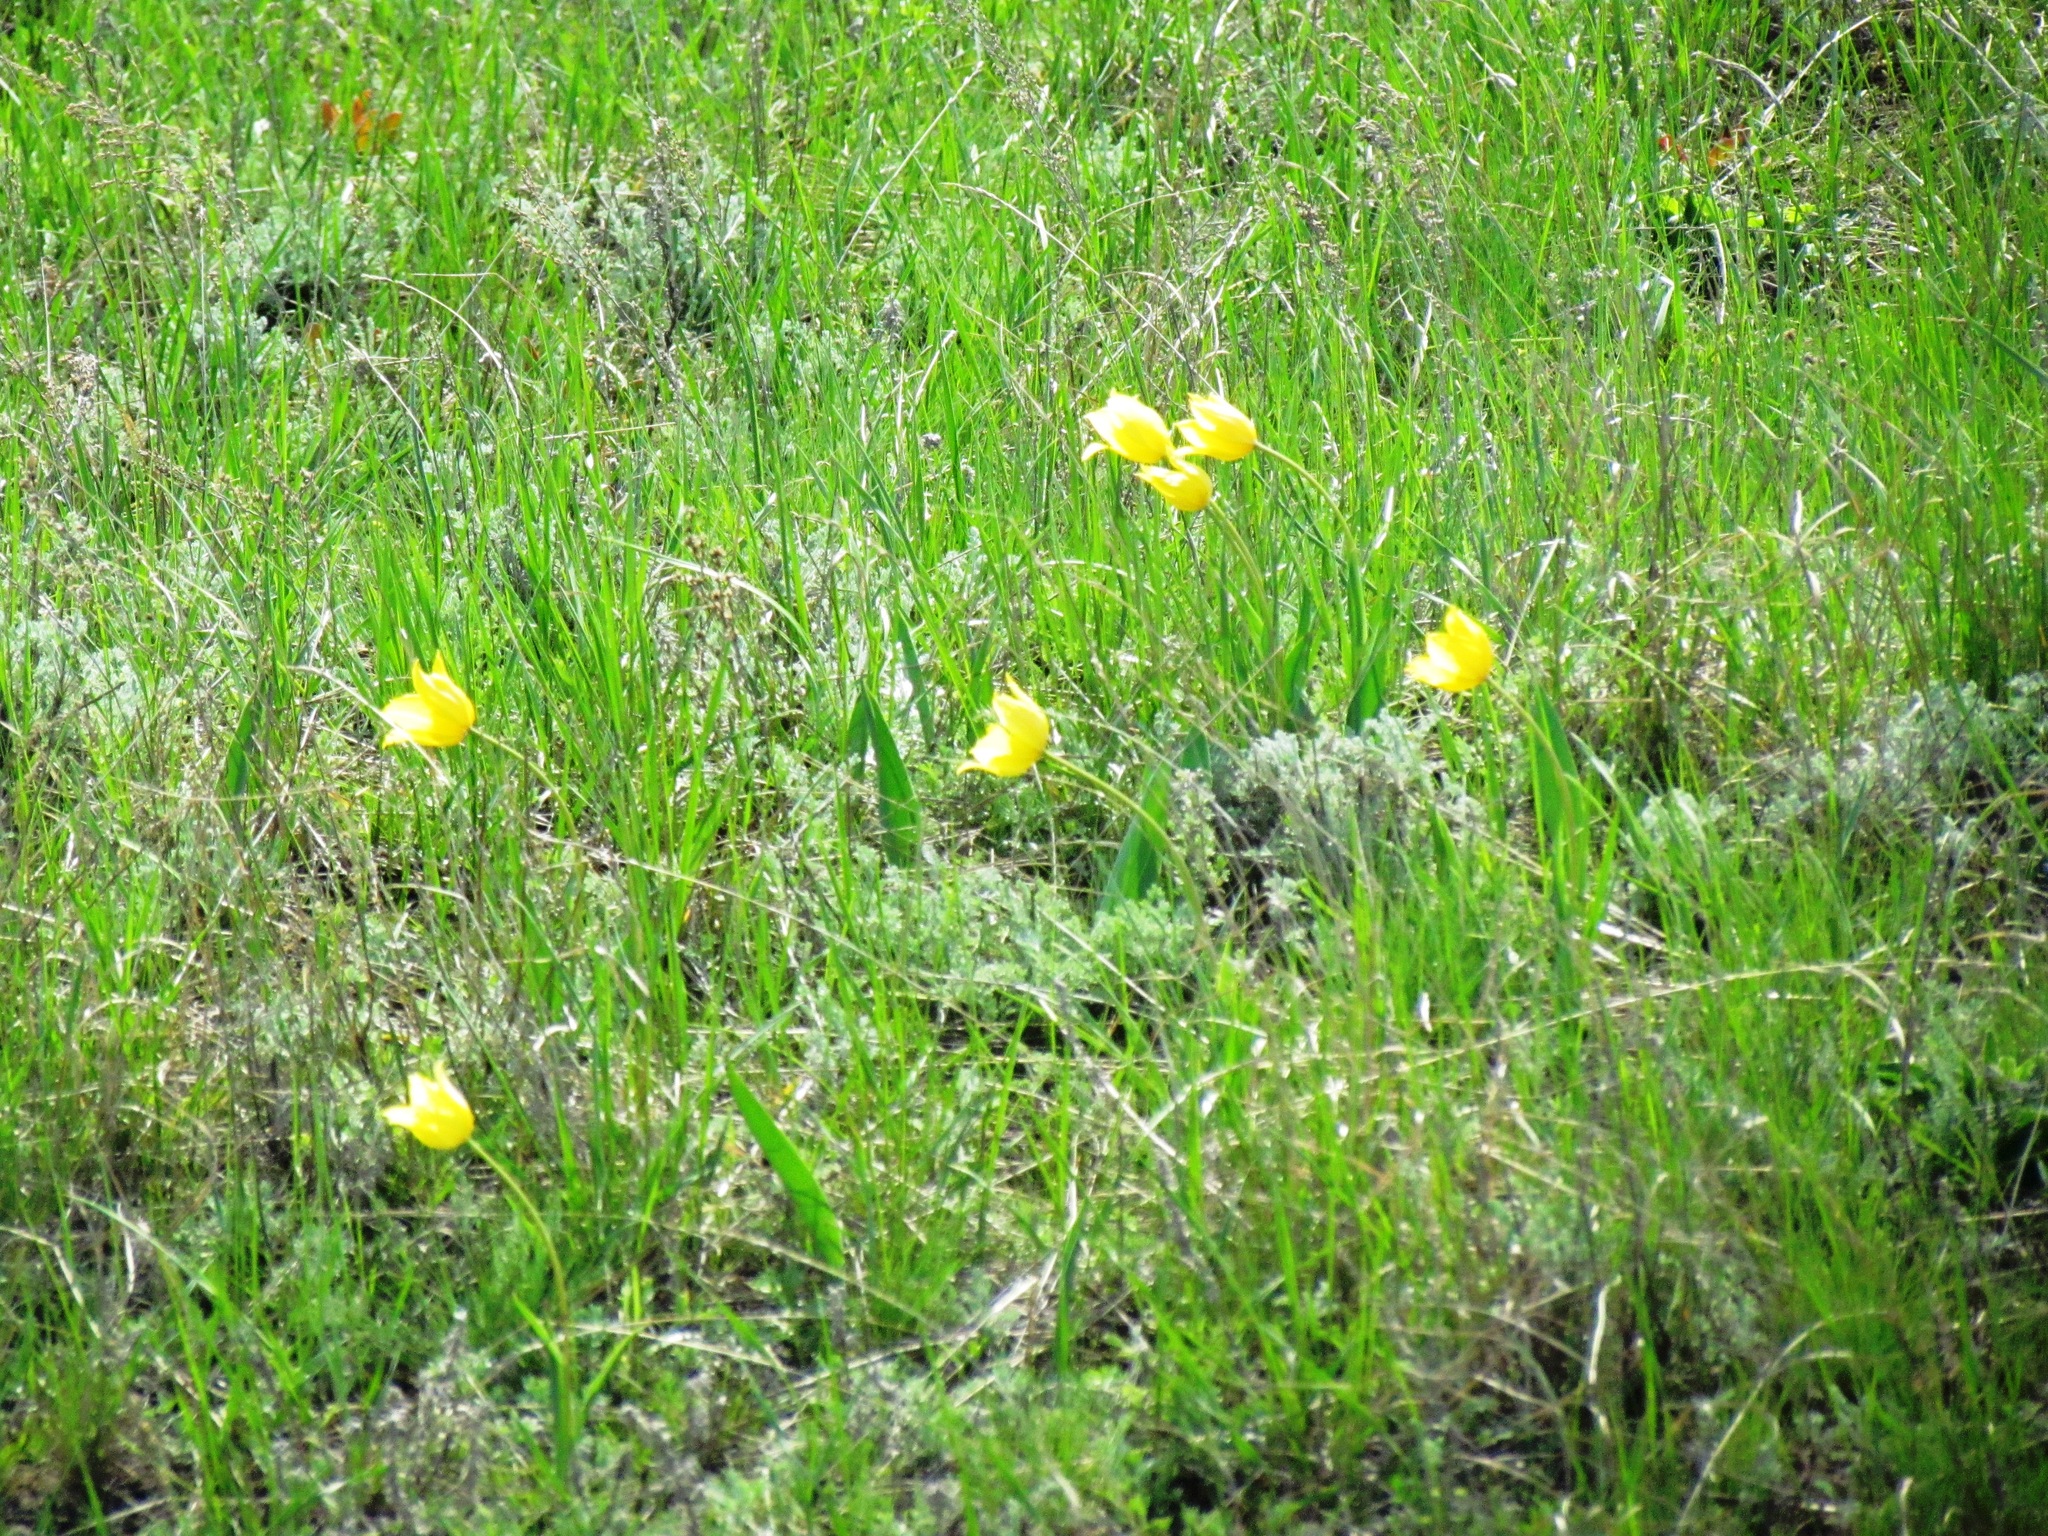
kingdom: Plantae
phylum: Tracheophyta
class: Liliopsida
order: Liliales
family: Liliaceae
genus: Tulipa
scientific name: Tulipa suaveolens
